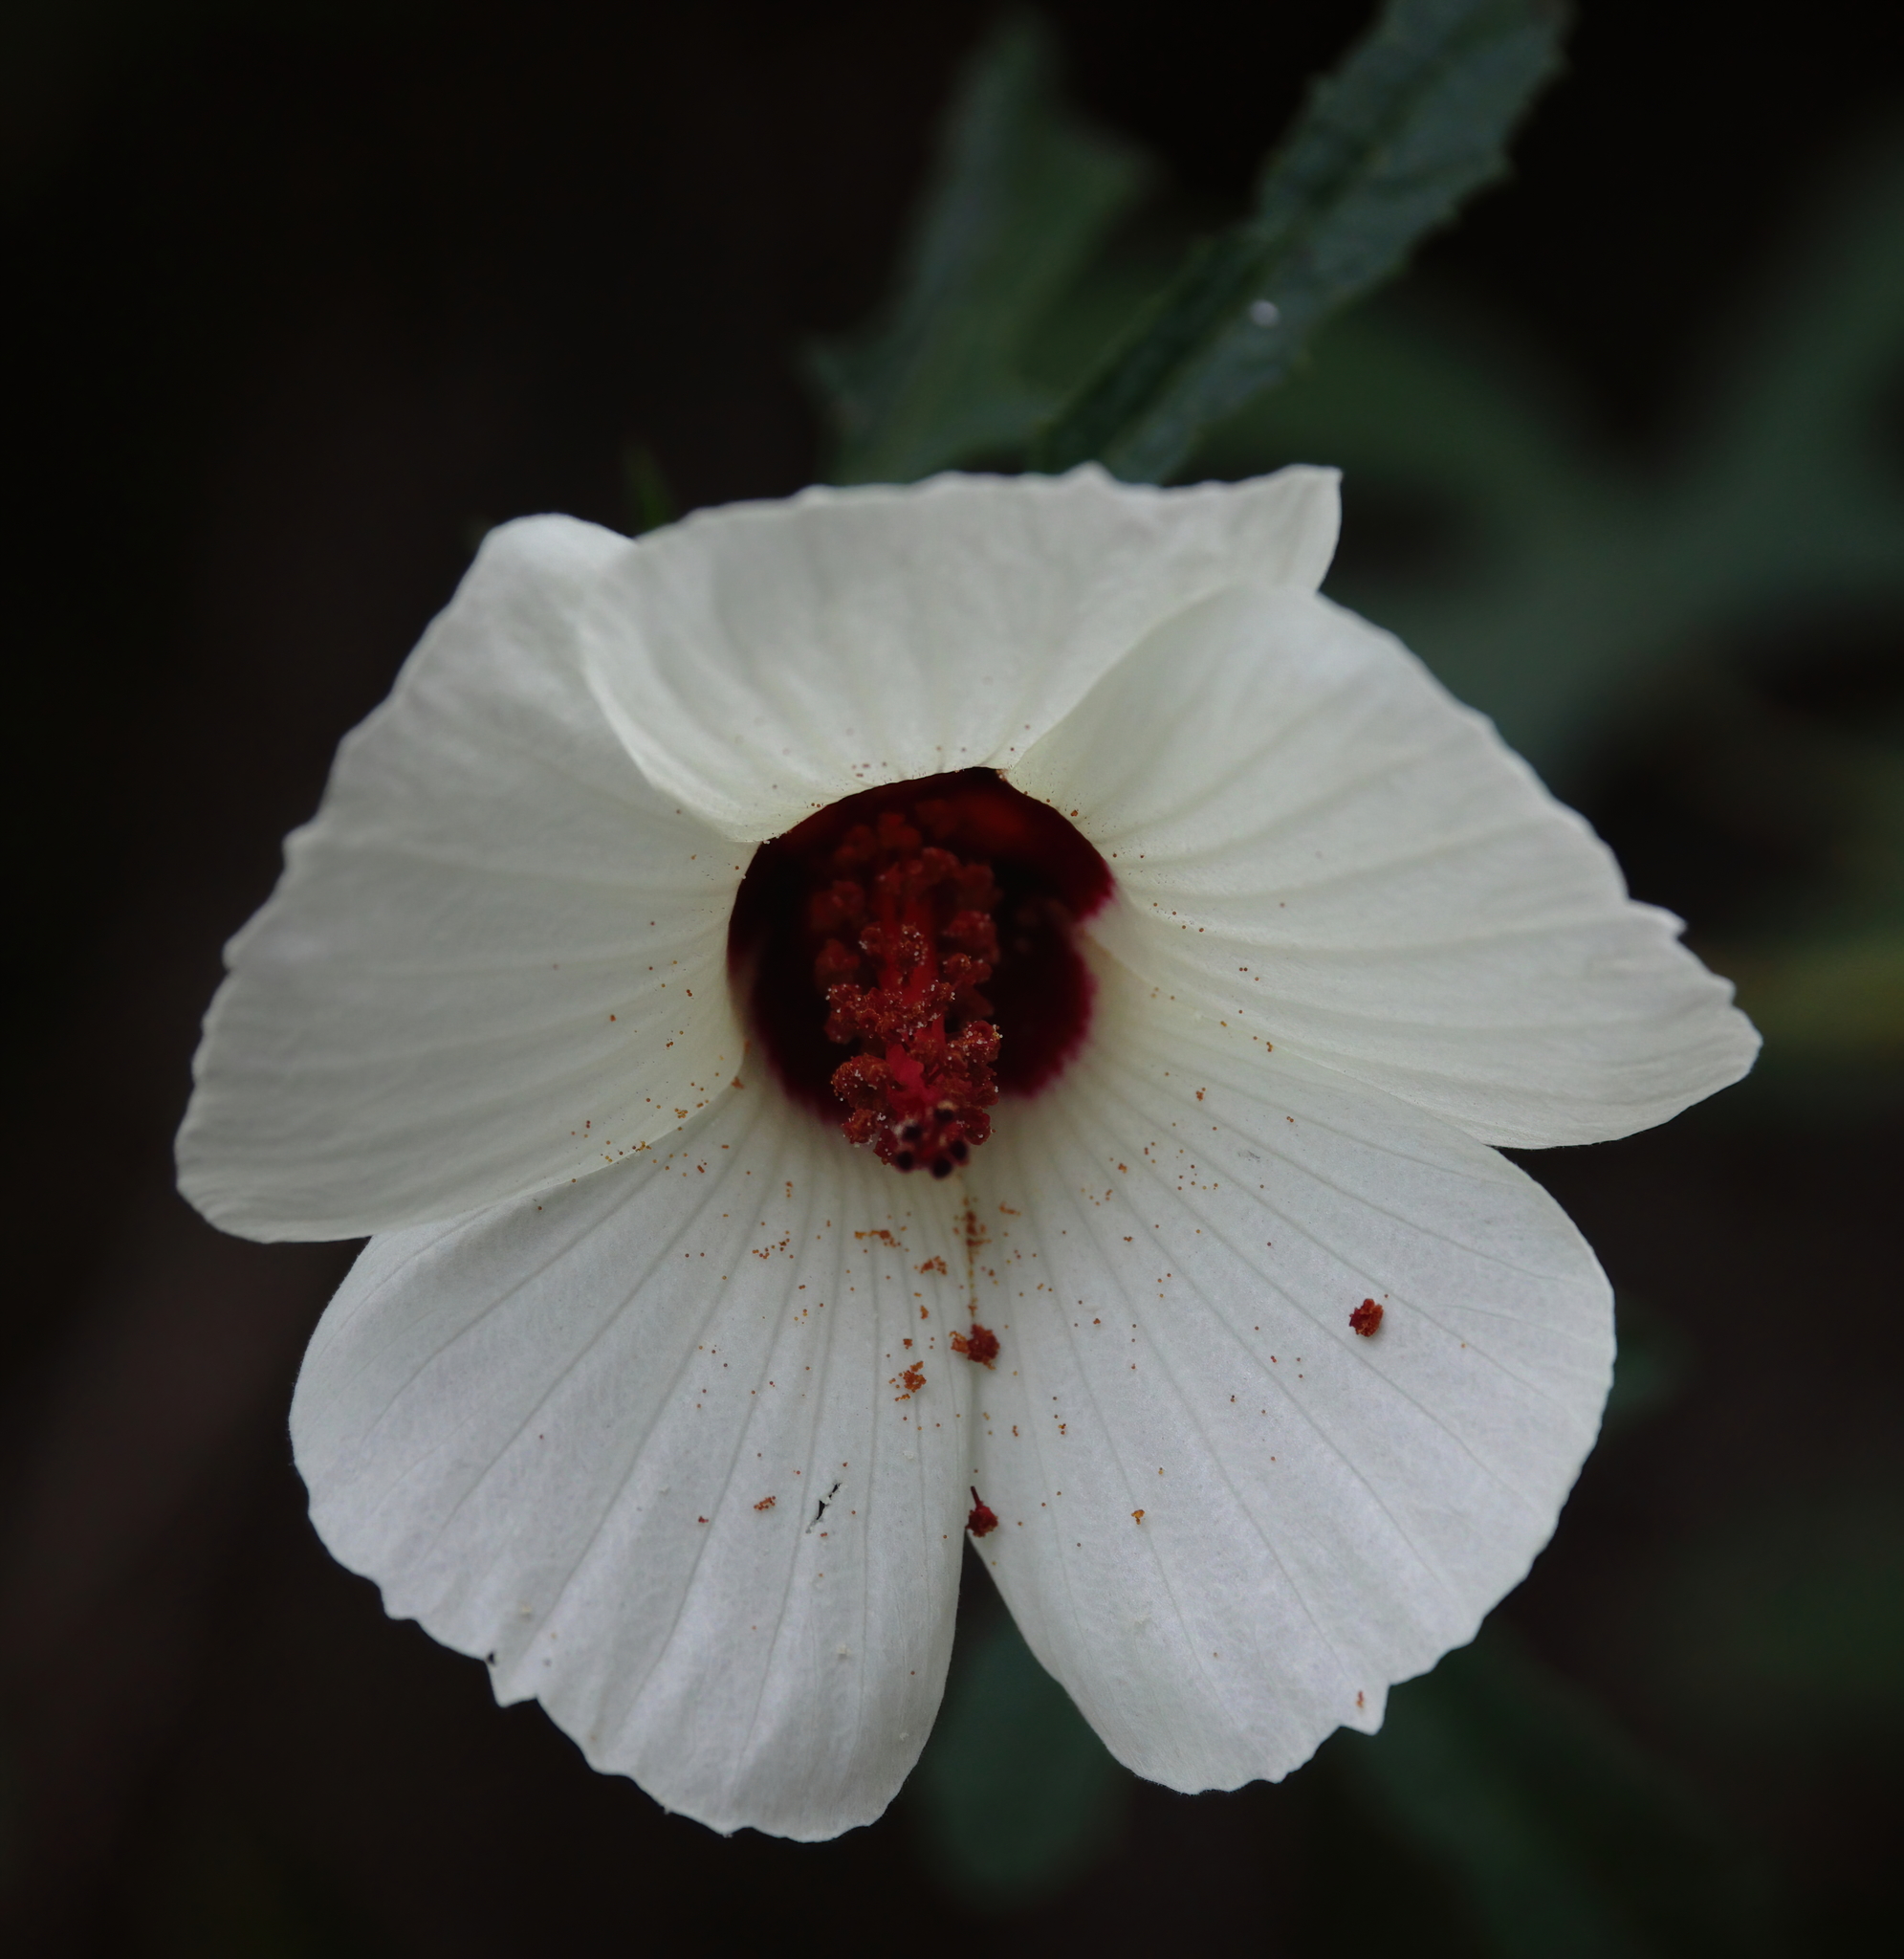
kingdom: Plantae
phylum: Tracheophyta
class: Magnoliopsida
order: Malvales
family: Malvaceae
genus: Hibiscus
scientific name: Hibiscus aculeatus
